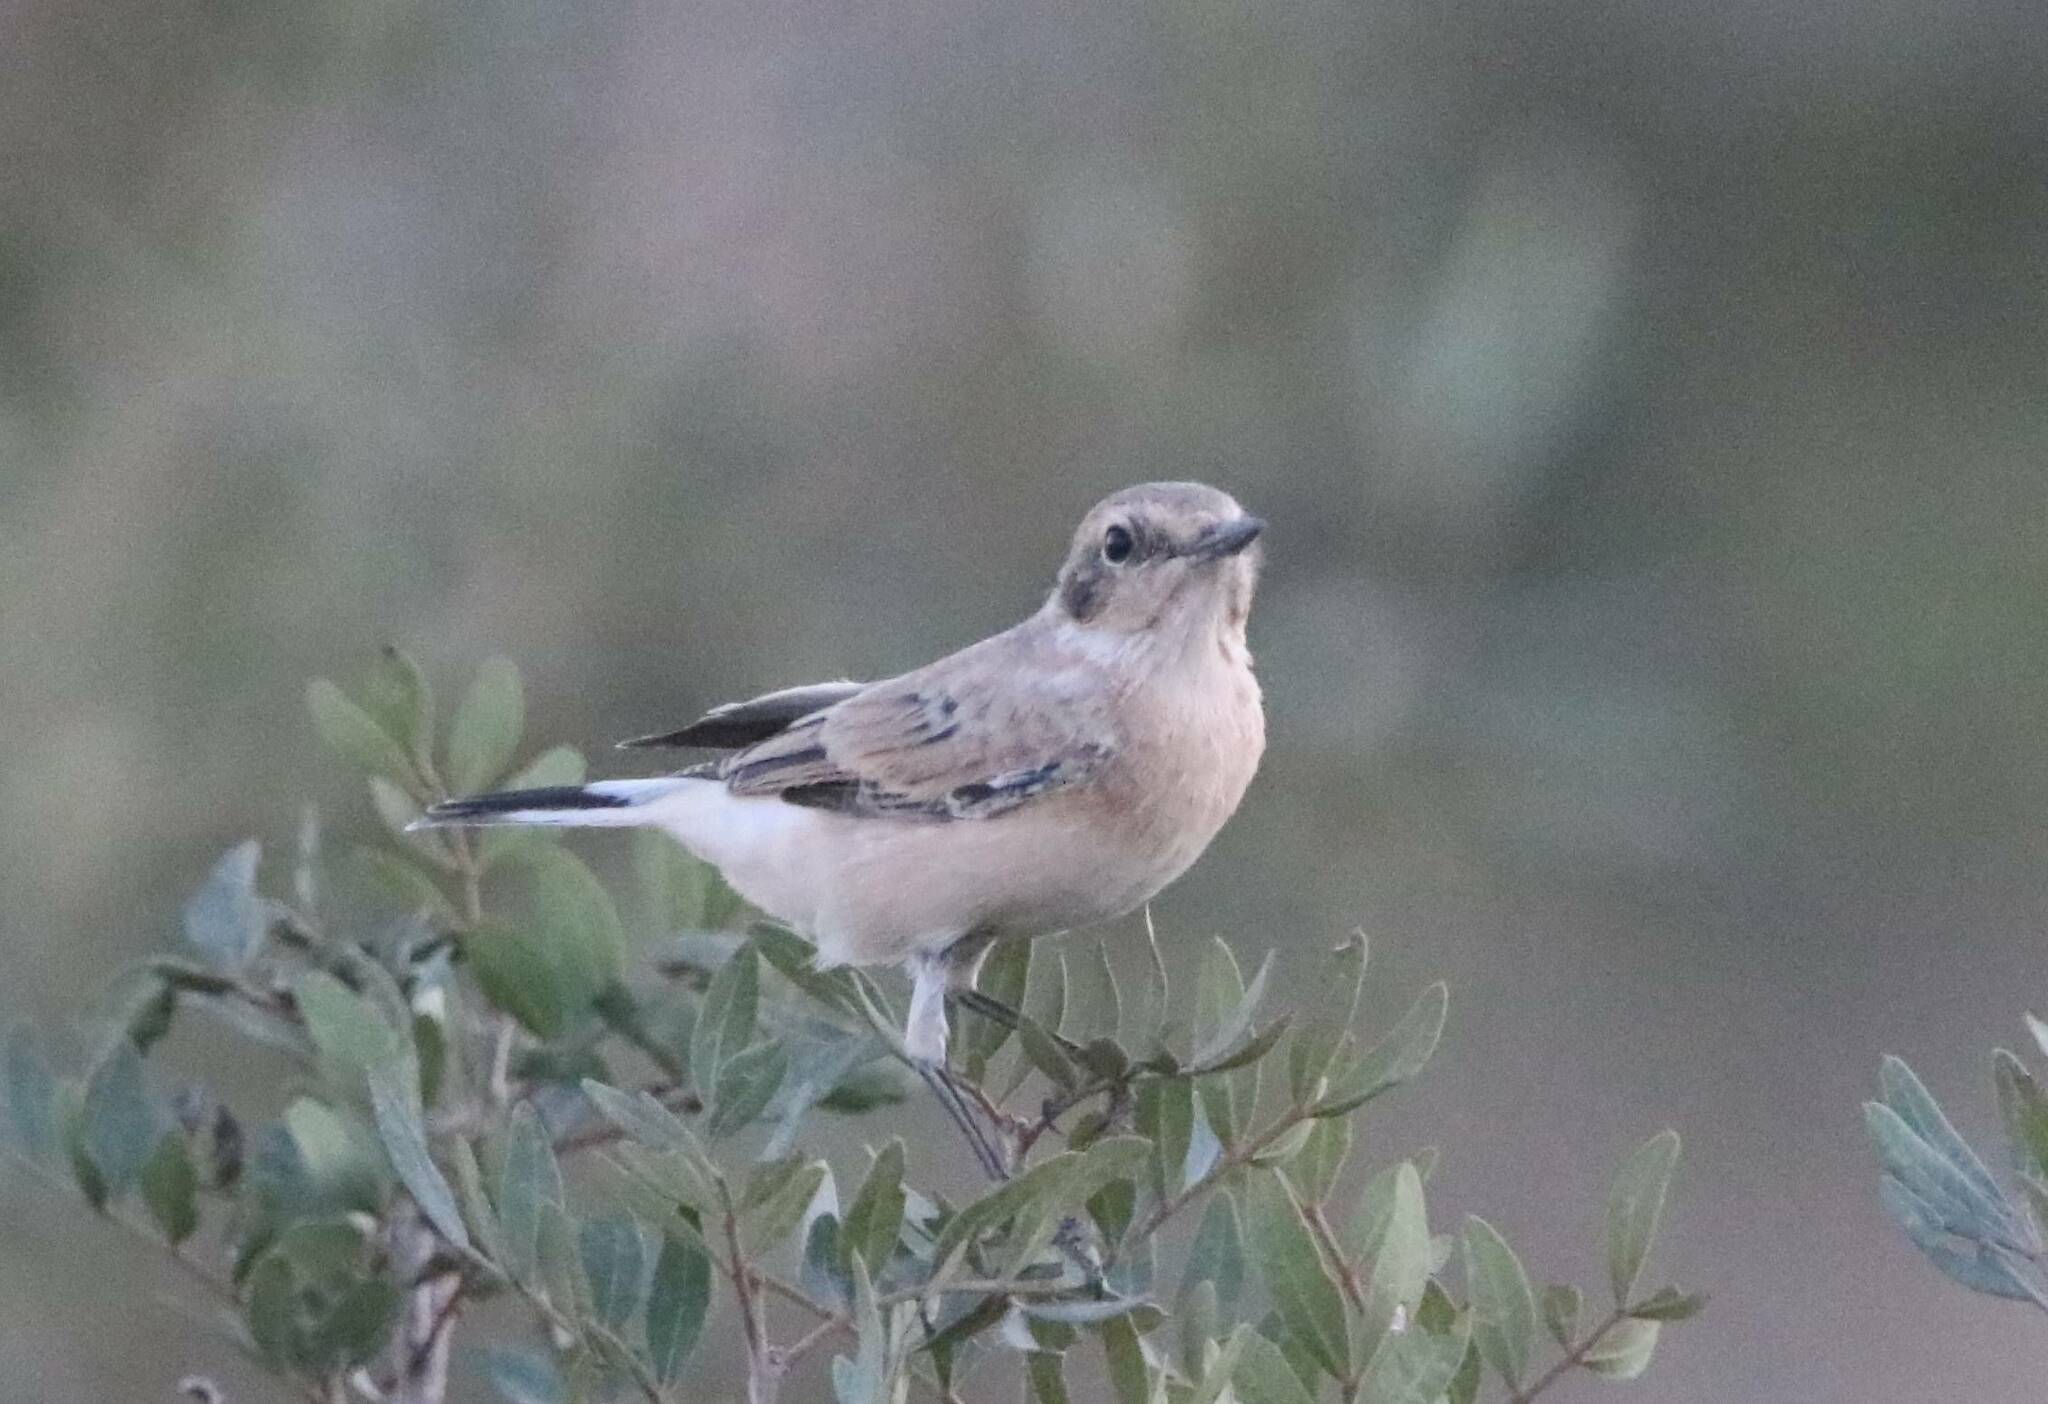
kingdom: Animalia
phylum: Chordata
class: Aves
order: Passeriformes
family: Muscicapidae
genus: Oenanthe
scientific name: Oenanthe hispanica
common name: Black-eared wheatear
